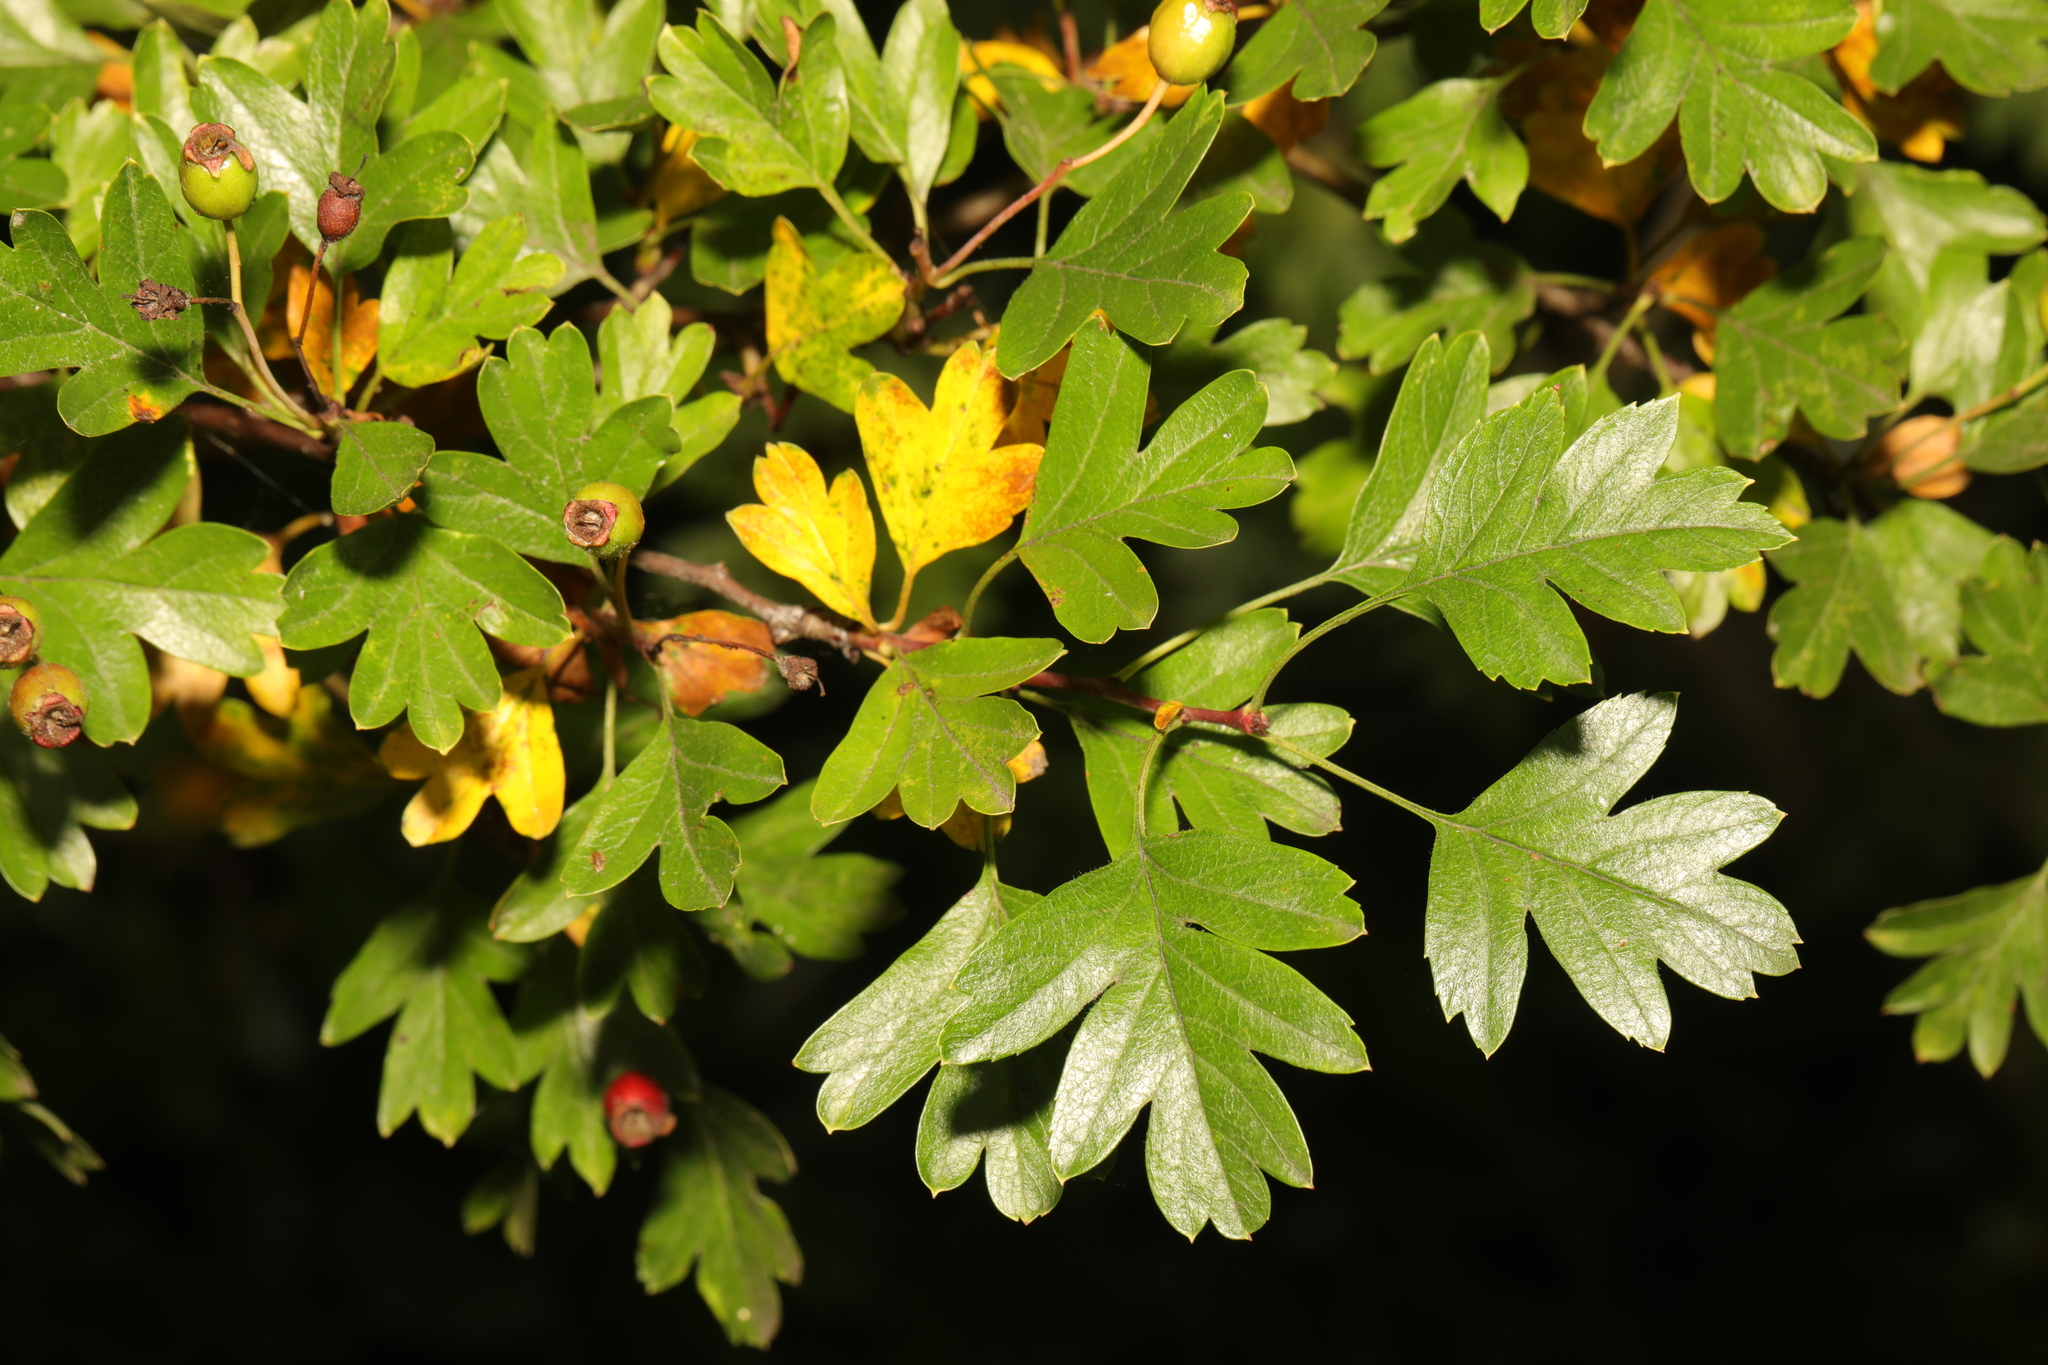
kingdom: Plantae
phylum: Tracheophyta
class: Magnoliopsida
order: Rosales
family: Rosaceae
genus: Crataegus
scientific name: Crataegus monogyna
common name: Hawthorn
